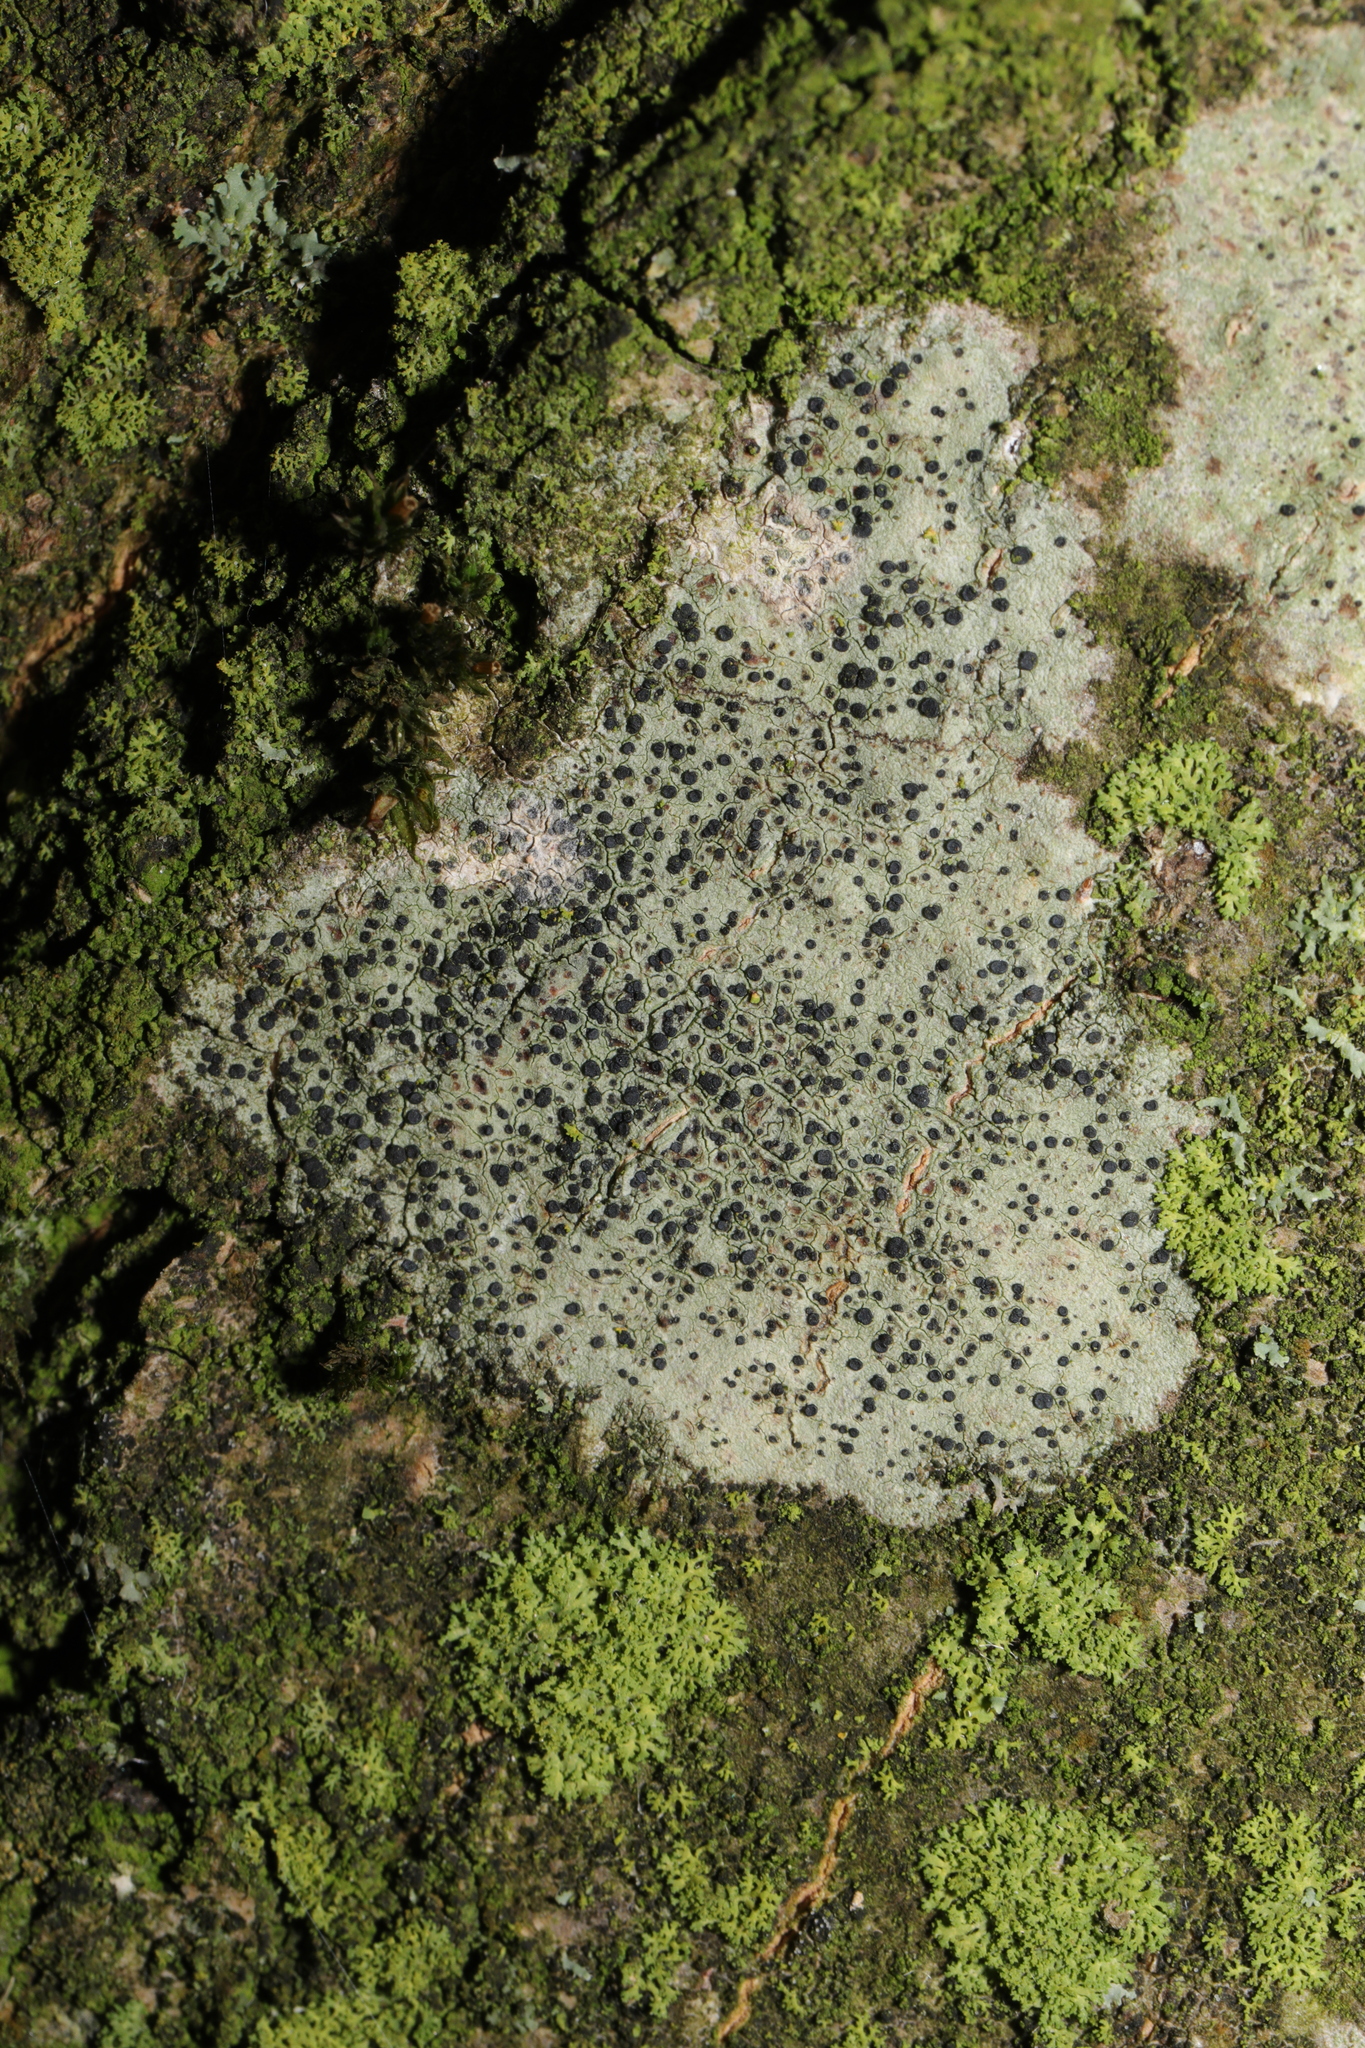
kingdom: Fungi
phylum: Ascomycota
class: Lecanoromycetes
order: Lecanorales
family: Lecanoraceae
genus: Lecidella
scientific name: Lecidella elaeochroma
